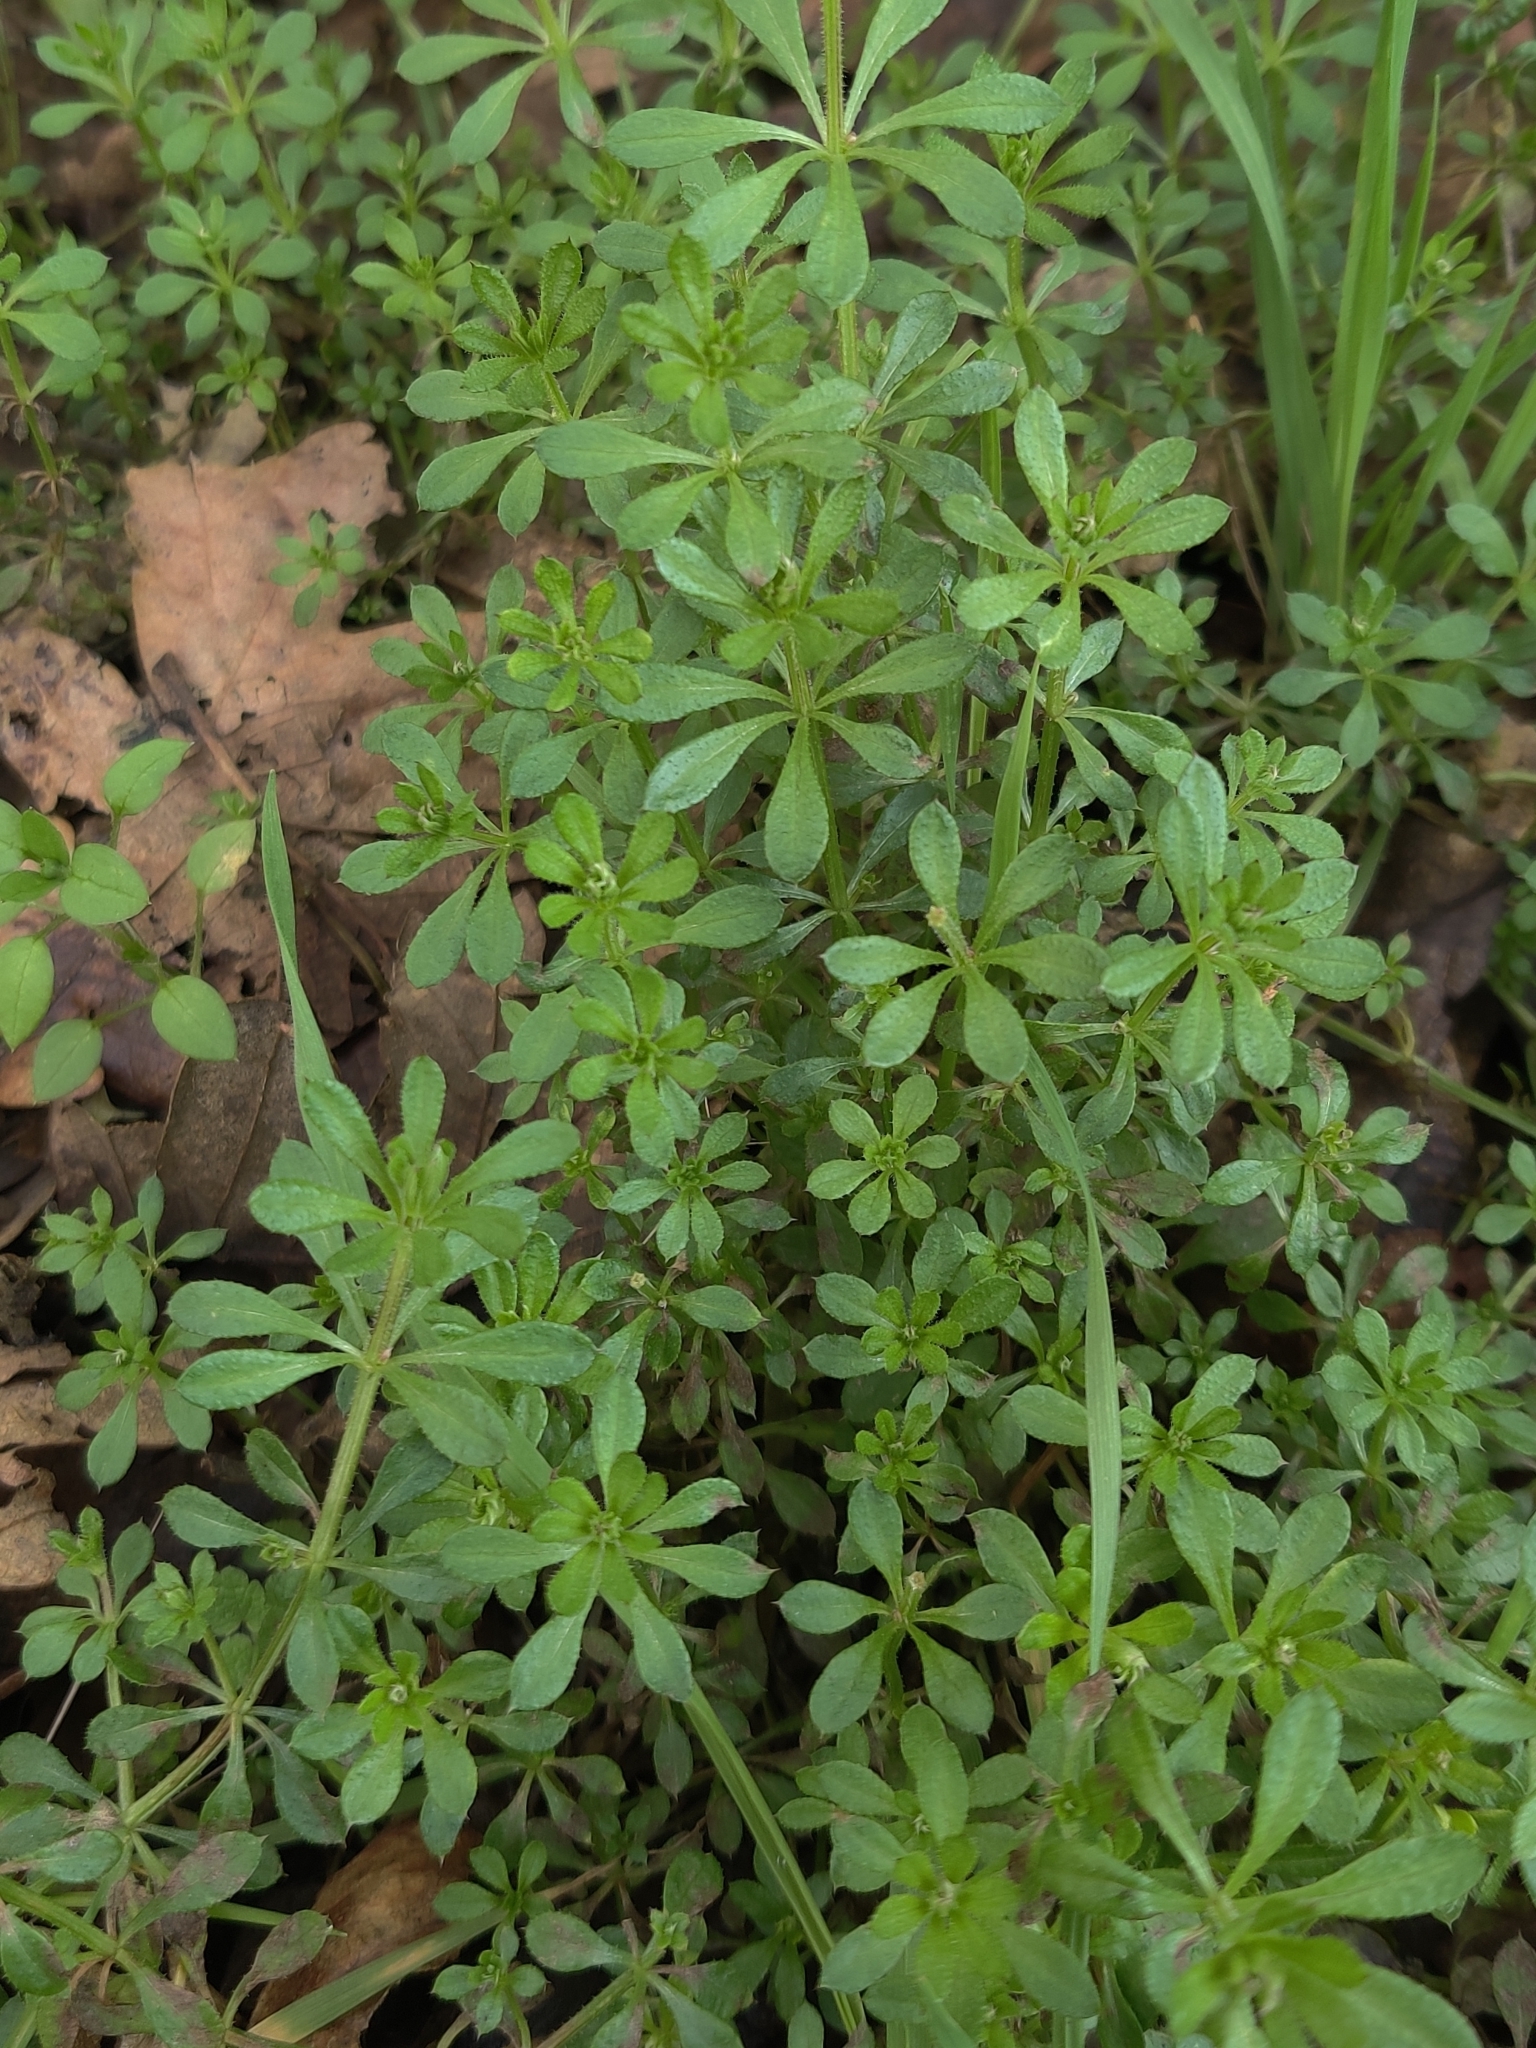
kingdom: Plantae
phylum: Tracheophyta
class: Magnoliopsida
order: Gentianales
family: Rubiaceae
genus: Galium
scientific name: Galium aparine
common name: Cleavers
